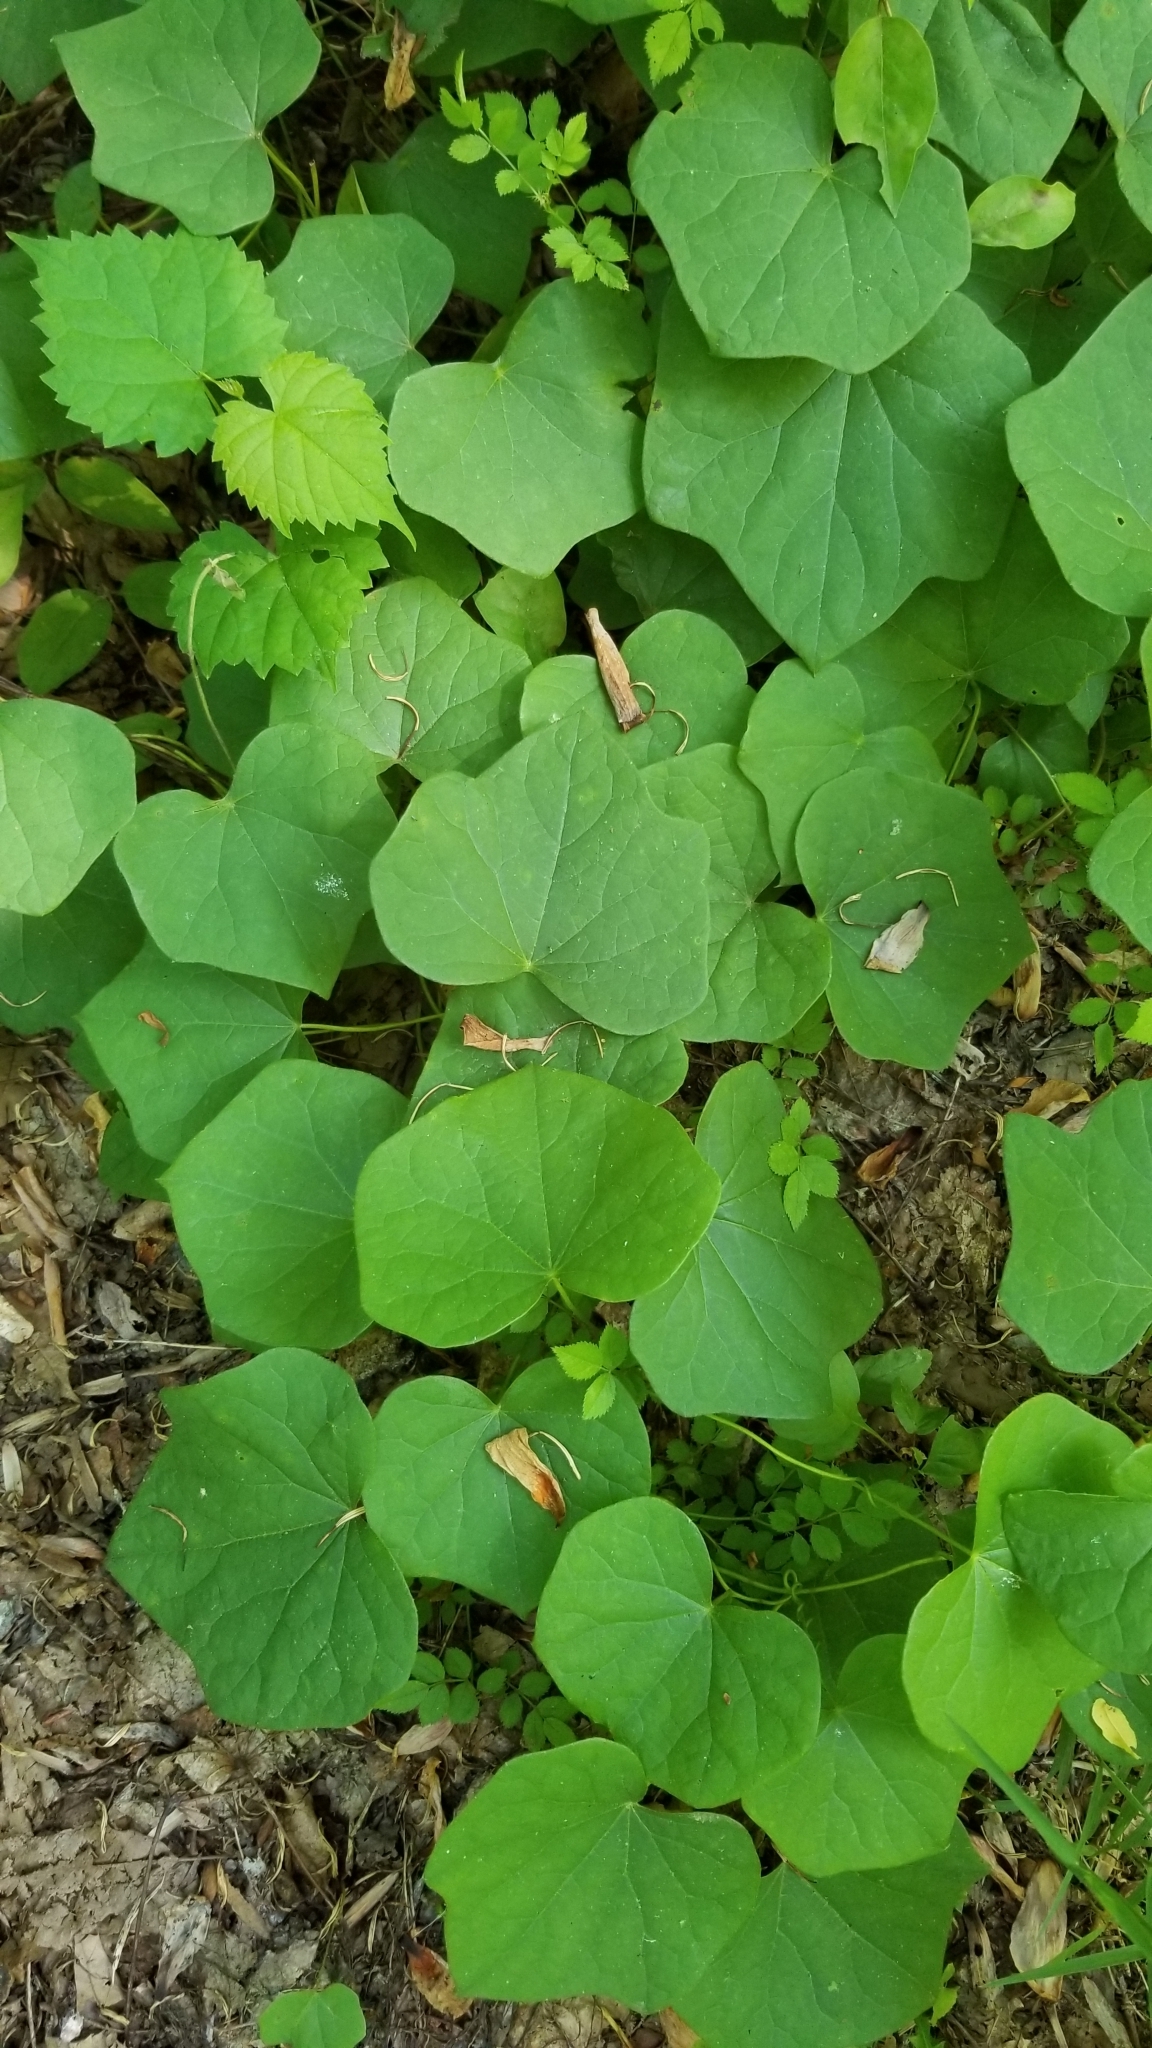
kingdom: Plantae
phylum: Tracheophyta
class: Magnoliopsida
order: Ranunculales
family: Menispermaceae
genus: Menispermum
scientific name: Menispermum canadense
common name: Moonseed
